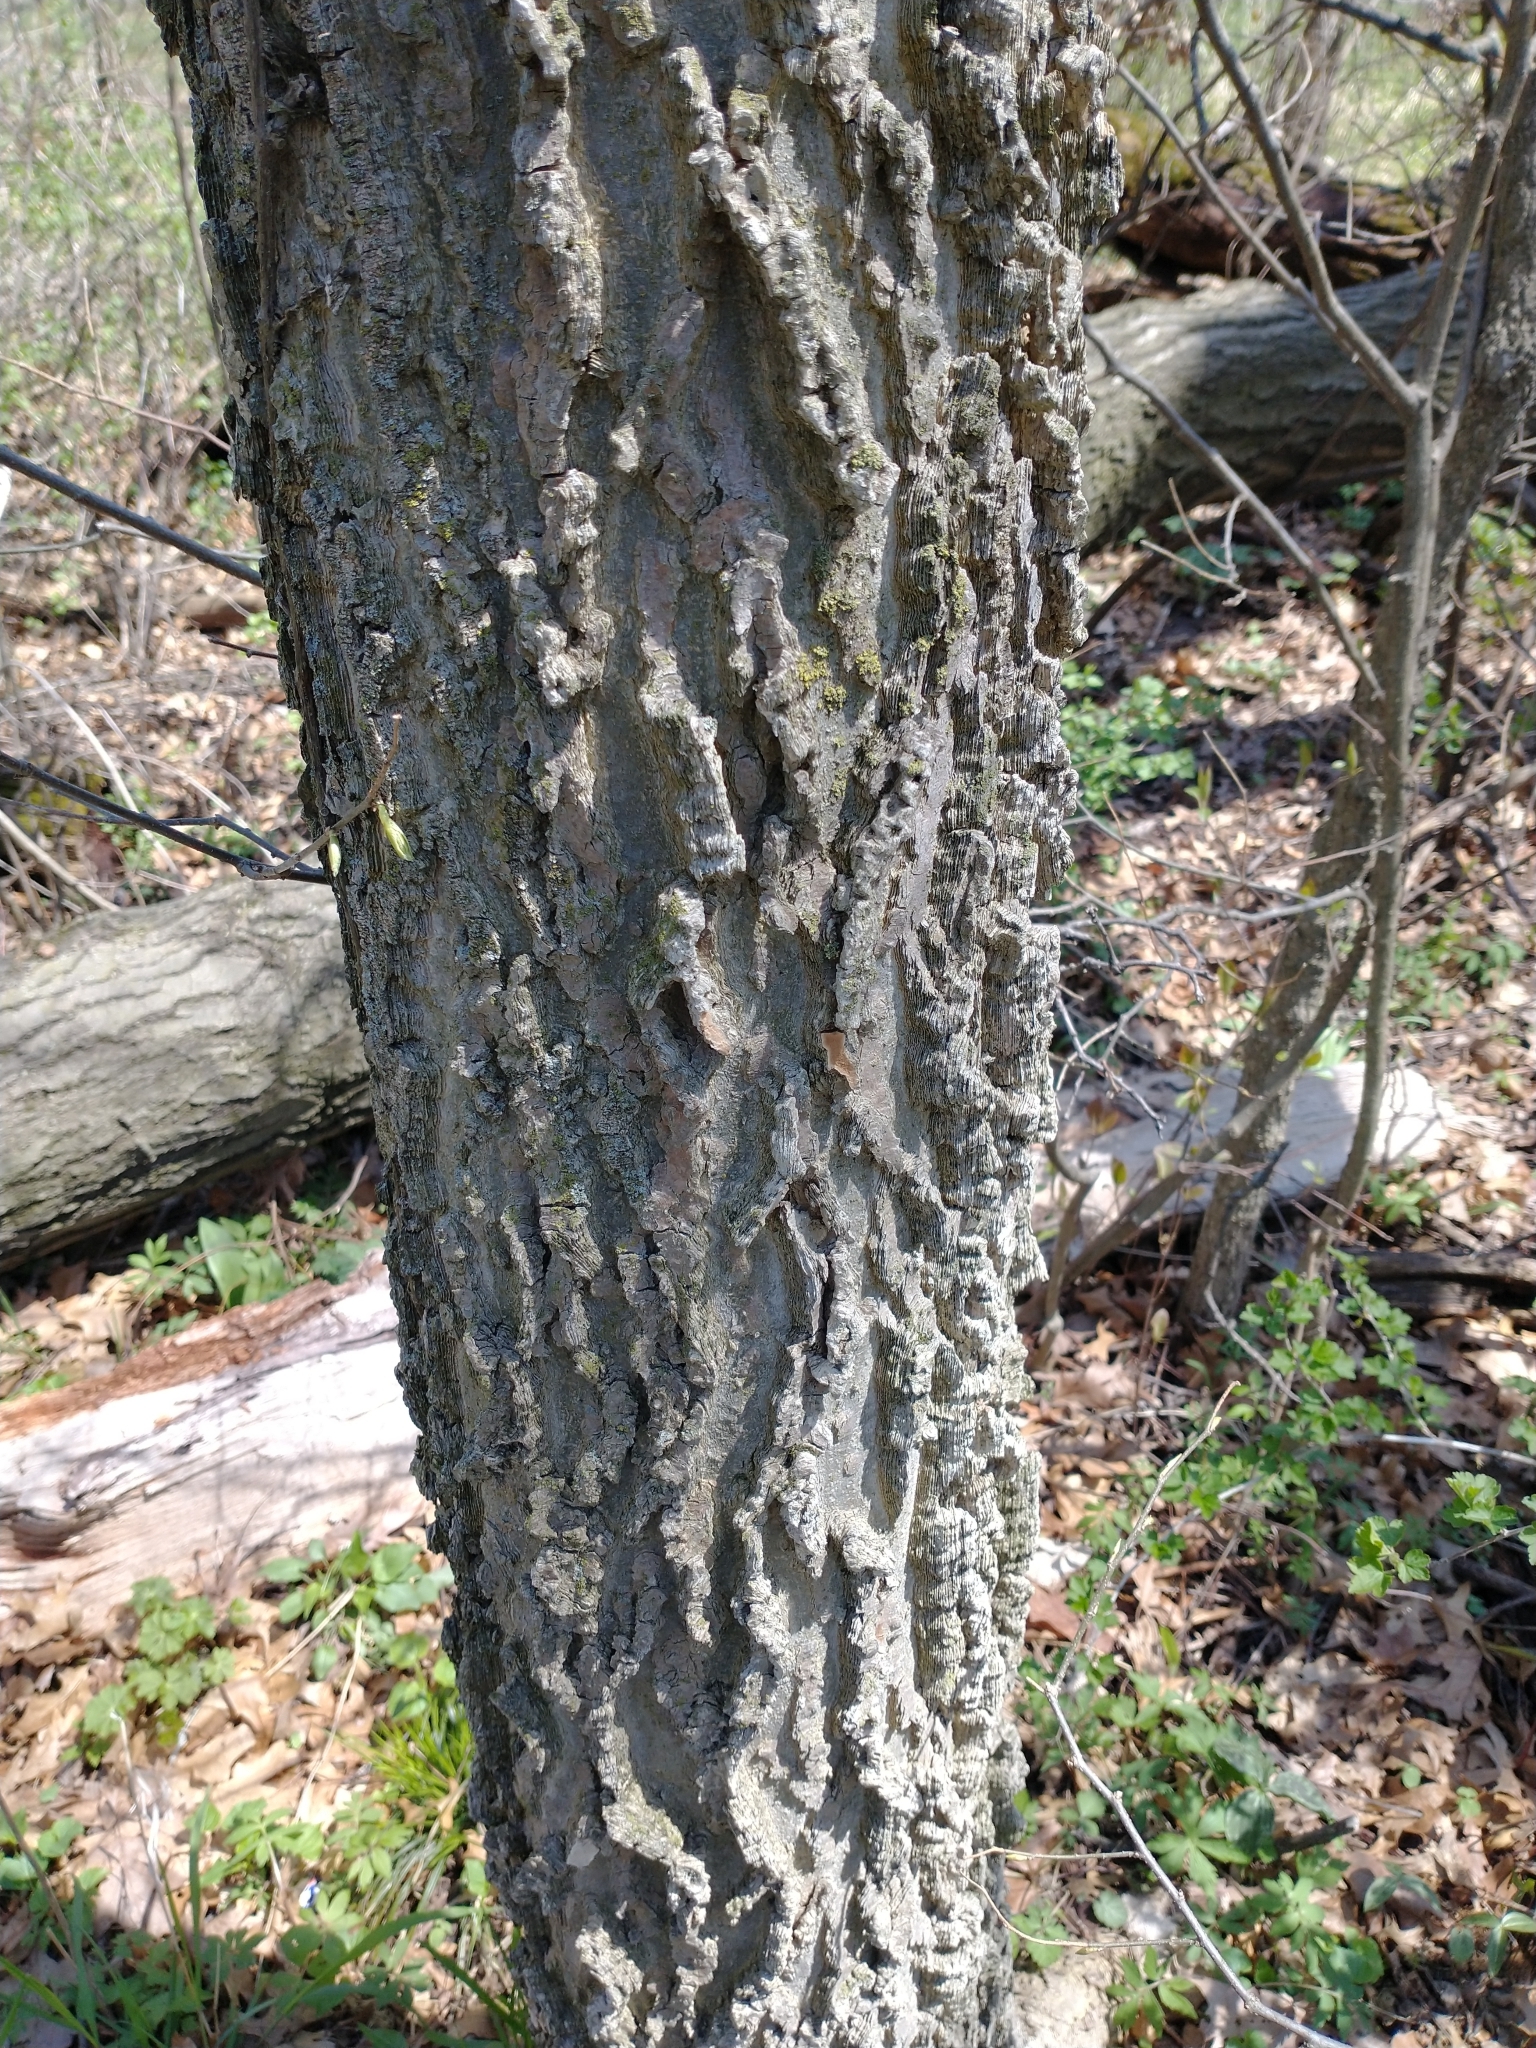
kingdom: Plantae
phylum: Tracheophyta
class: Magnoliopsida
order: Rosales
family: Cannabaceae
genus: Celtis
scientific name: Celtis occidentalis
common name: Common hackberry
